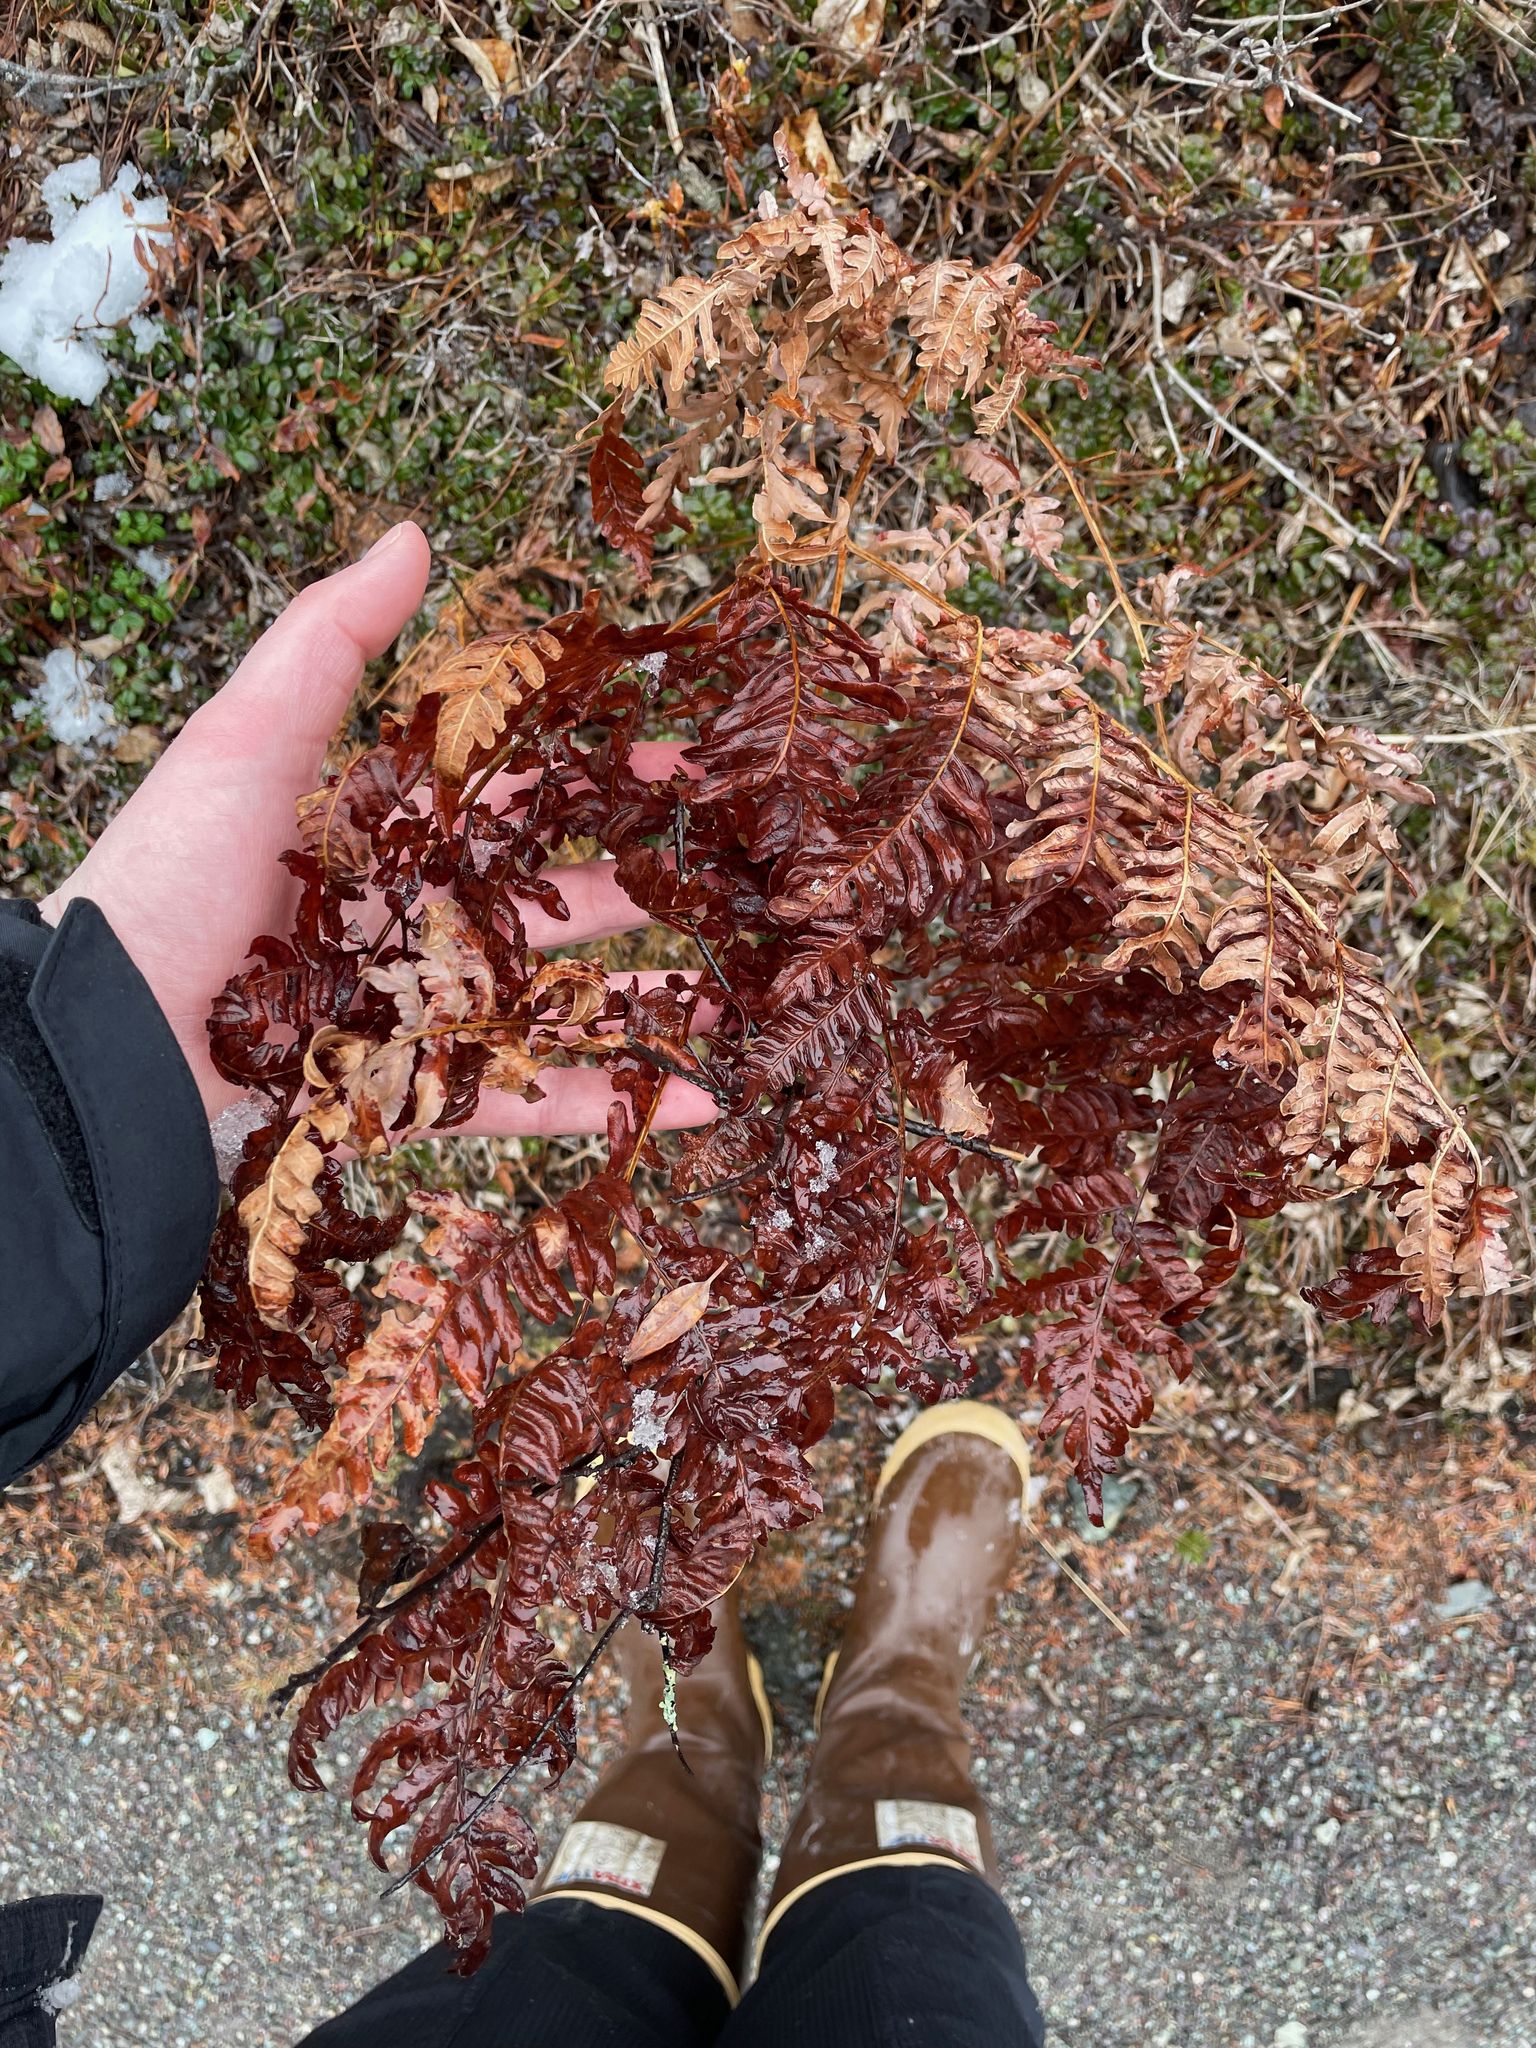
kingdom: Plantae
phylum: Tracheophyta
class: Polypodiopsida
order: Polypodiales
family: Dennstaedtiaceae
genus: Pteridium
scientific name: Pteridium aquilinum
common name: Bracken
